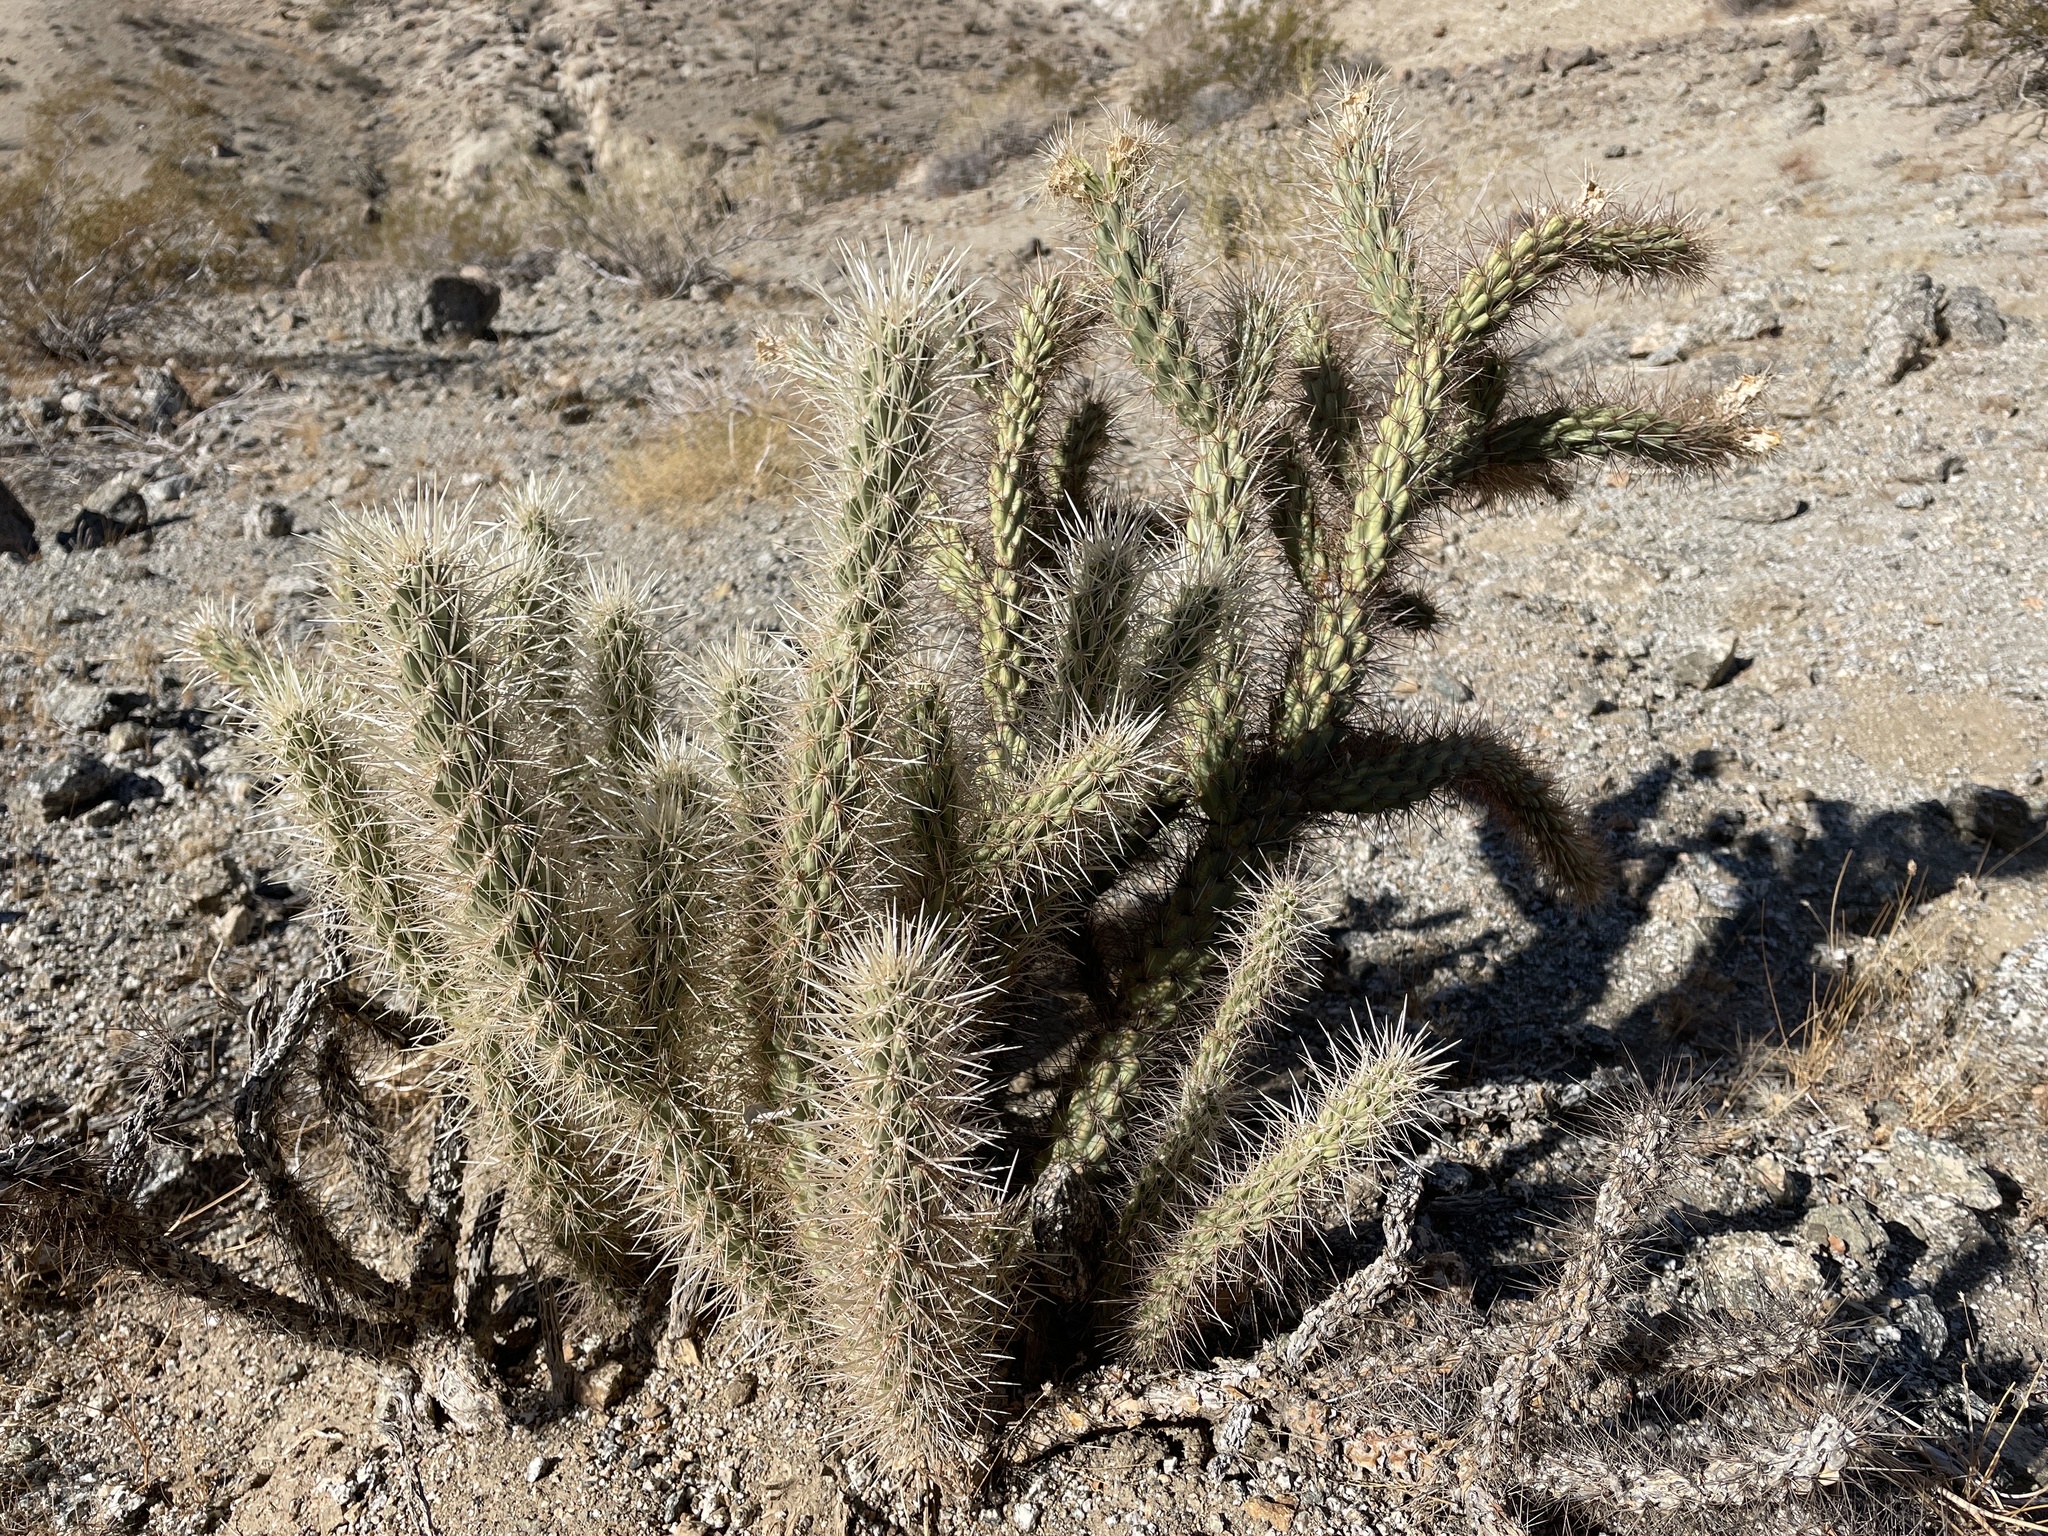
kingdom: Plantae
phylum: Tracheophyta
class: Magnoliopsida
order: Caryophyllales
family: Cactaceae
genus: Cylindropuntia
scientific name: Cylindropuntia ganderi
